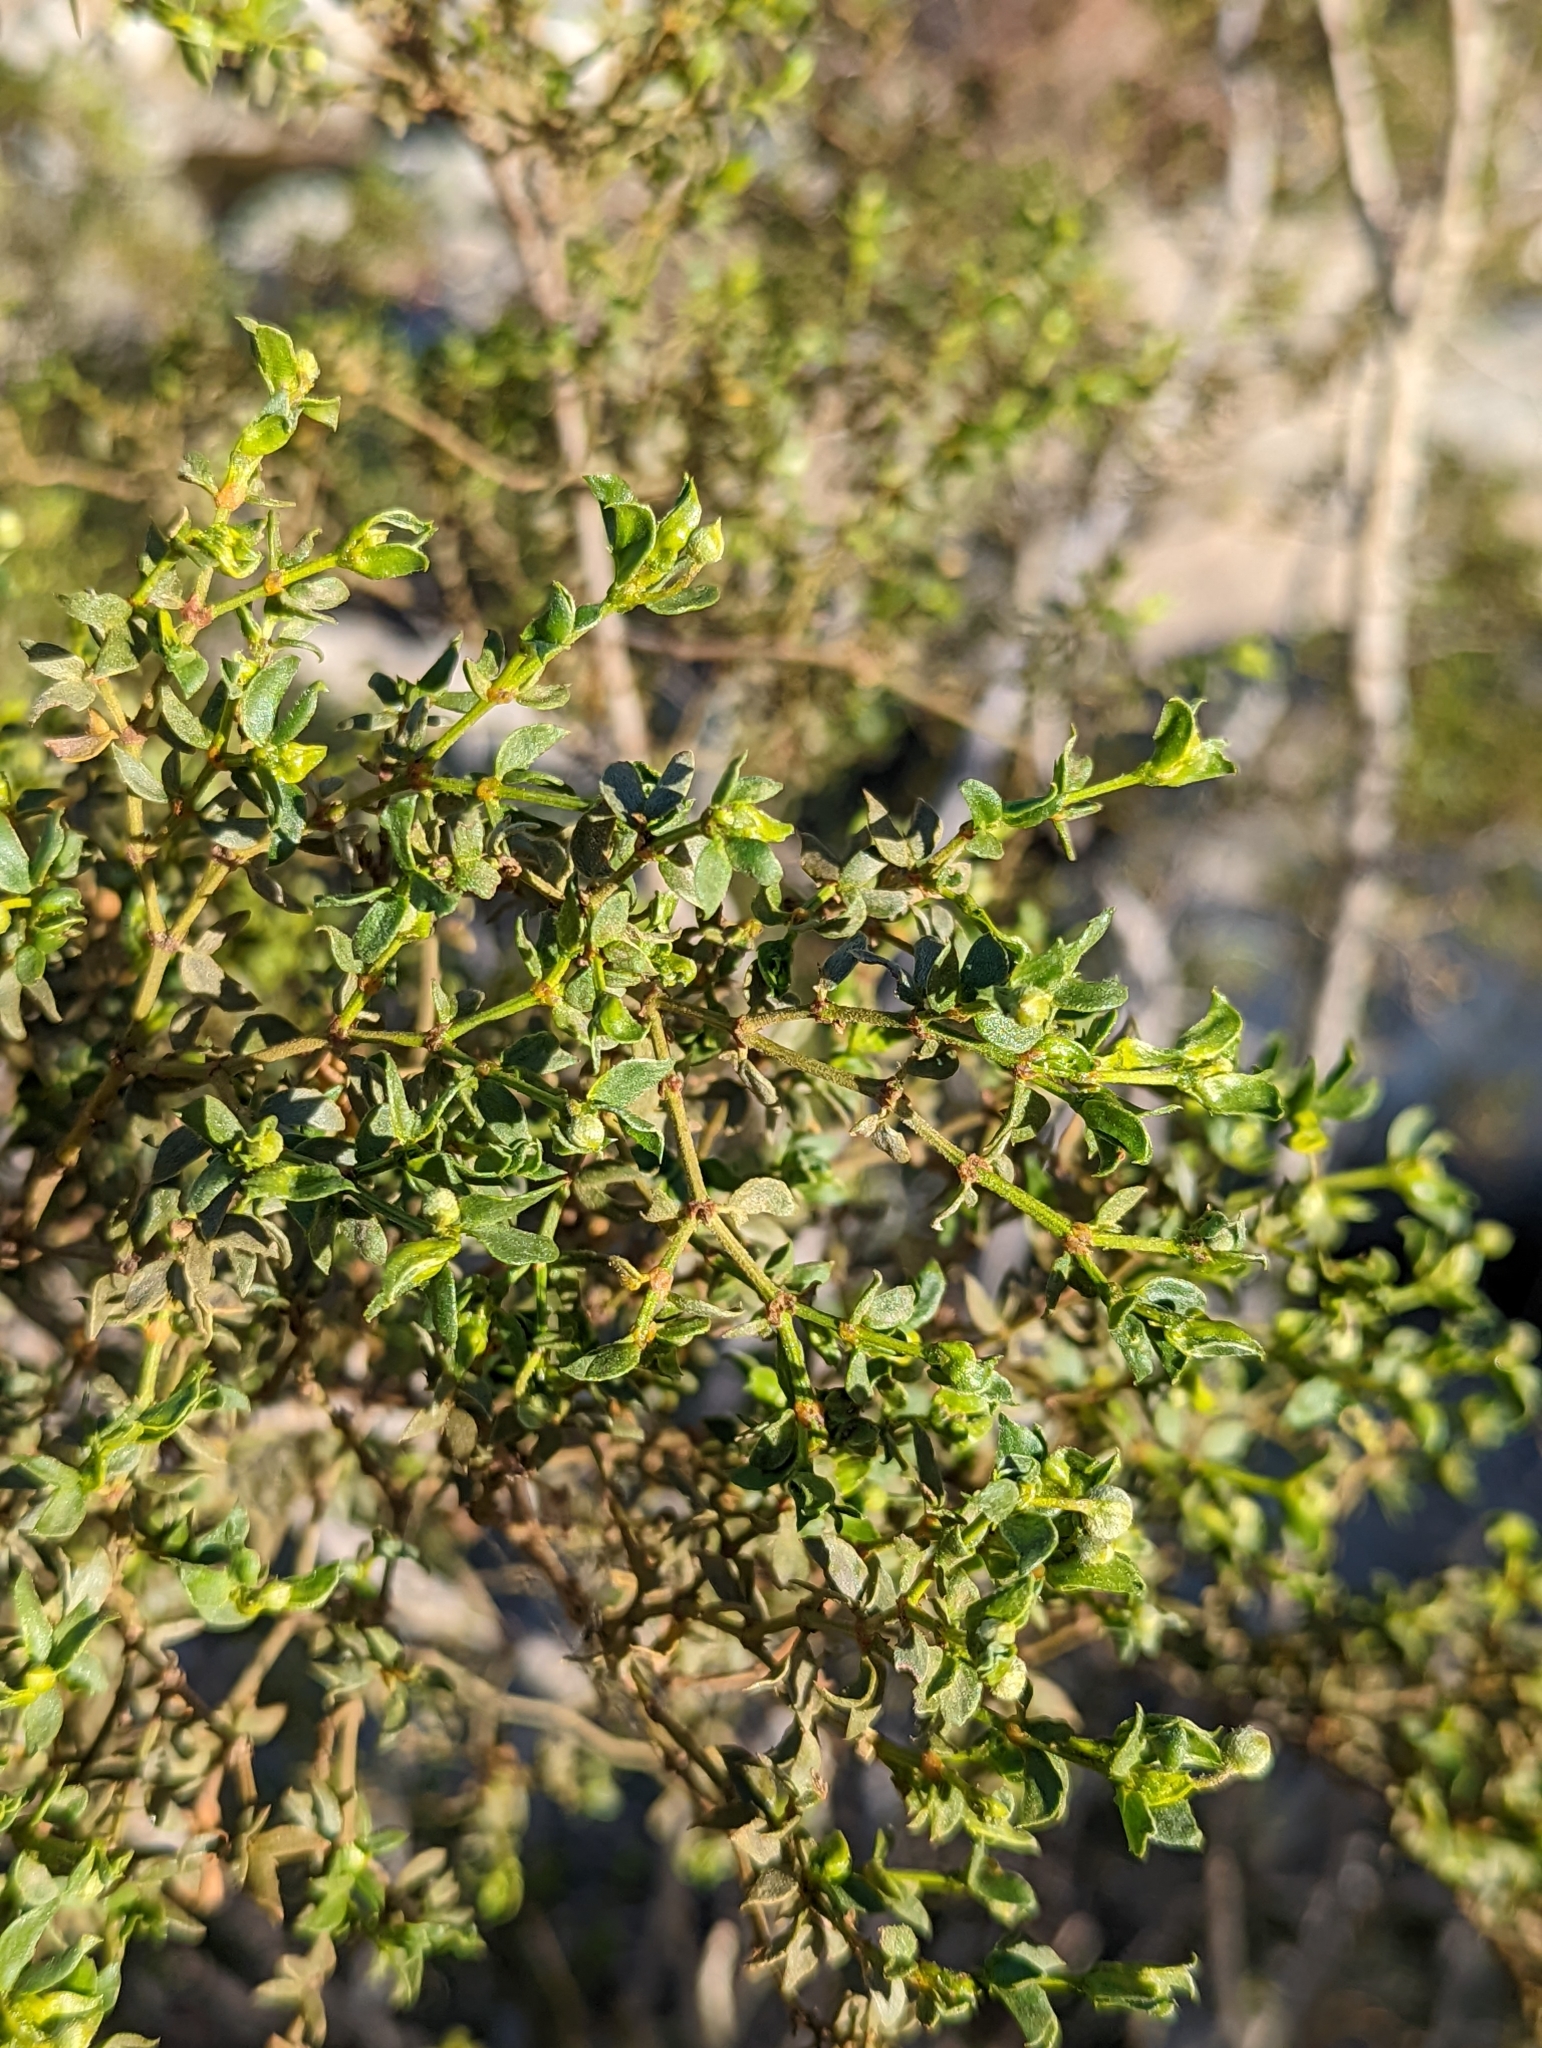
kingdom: Plantae
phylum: Tracheophyta
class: Magnoliopsida
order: Zygophyllales
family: Zygophyllaceae
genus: Larrea
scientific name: Larrea tridentata
